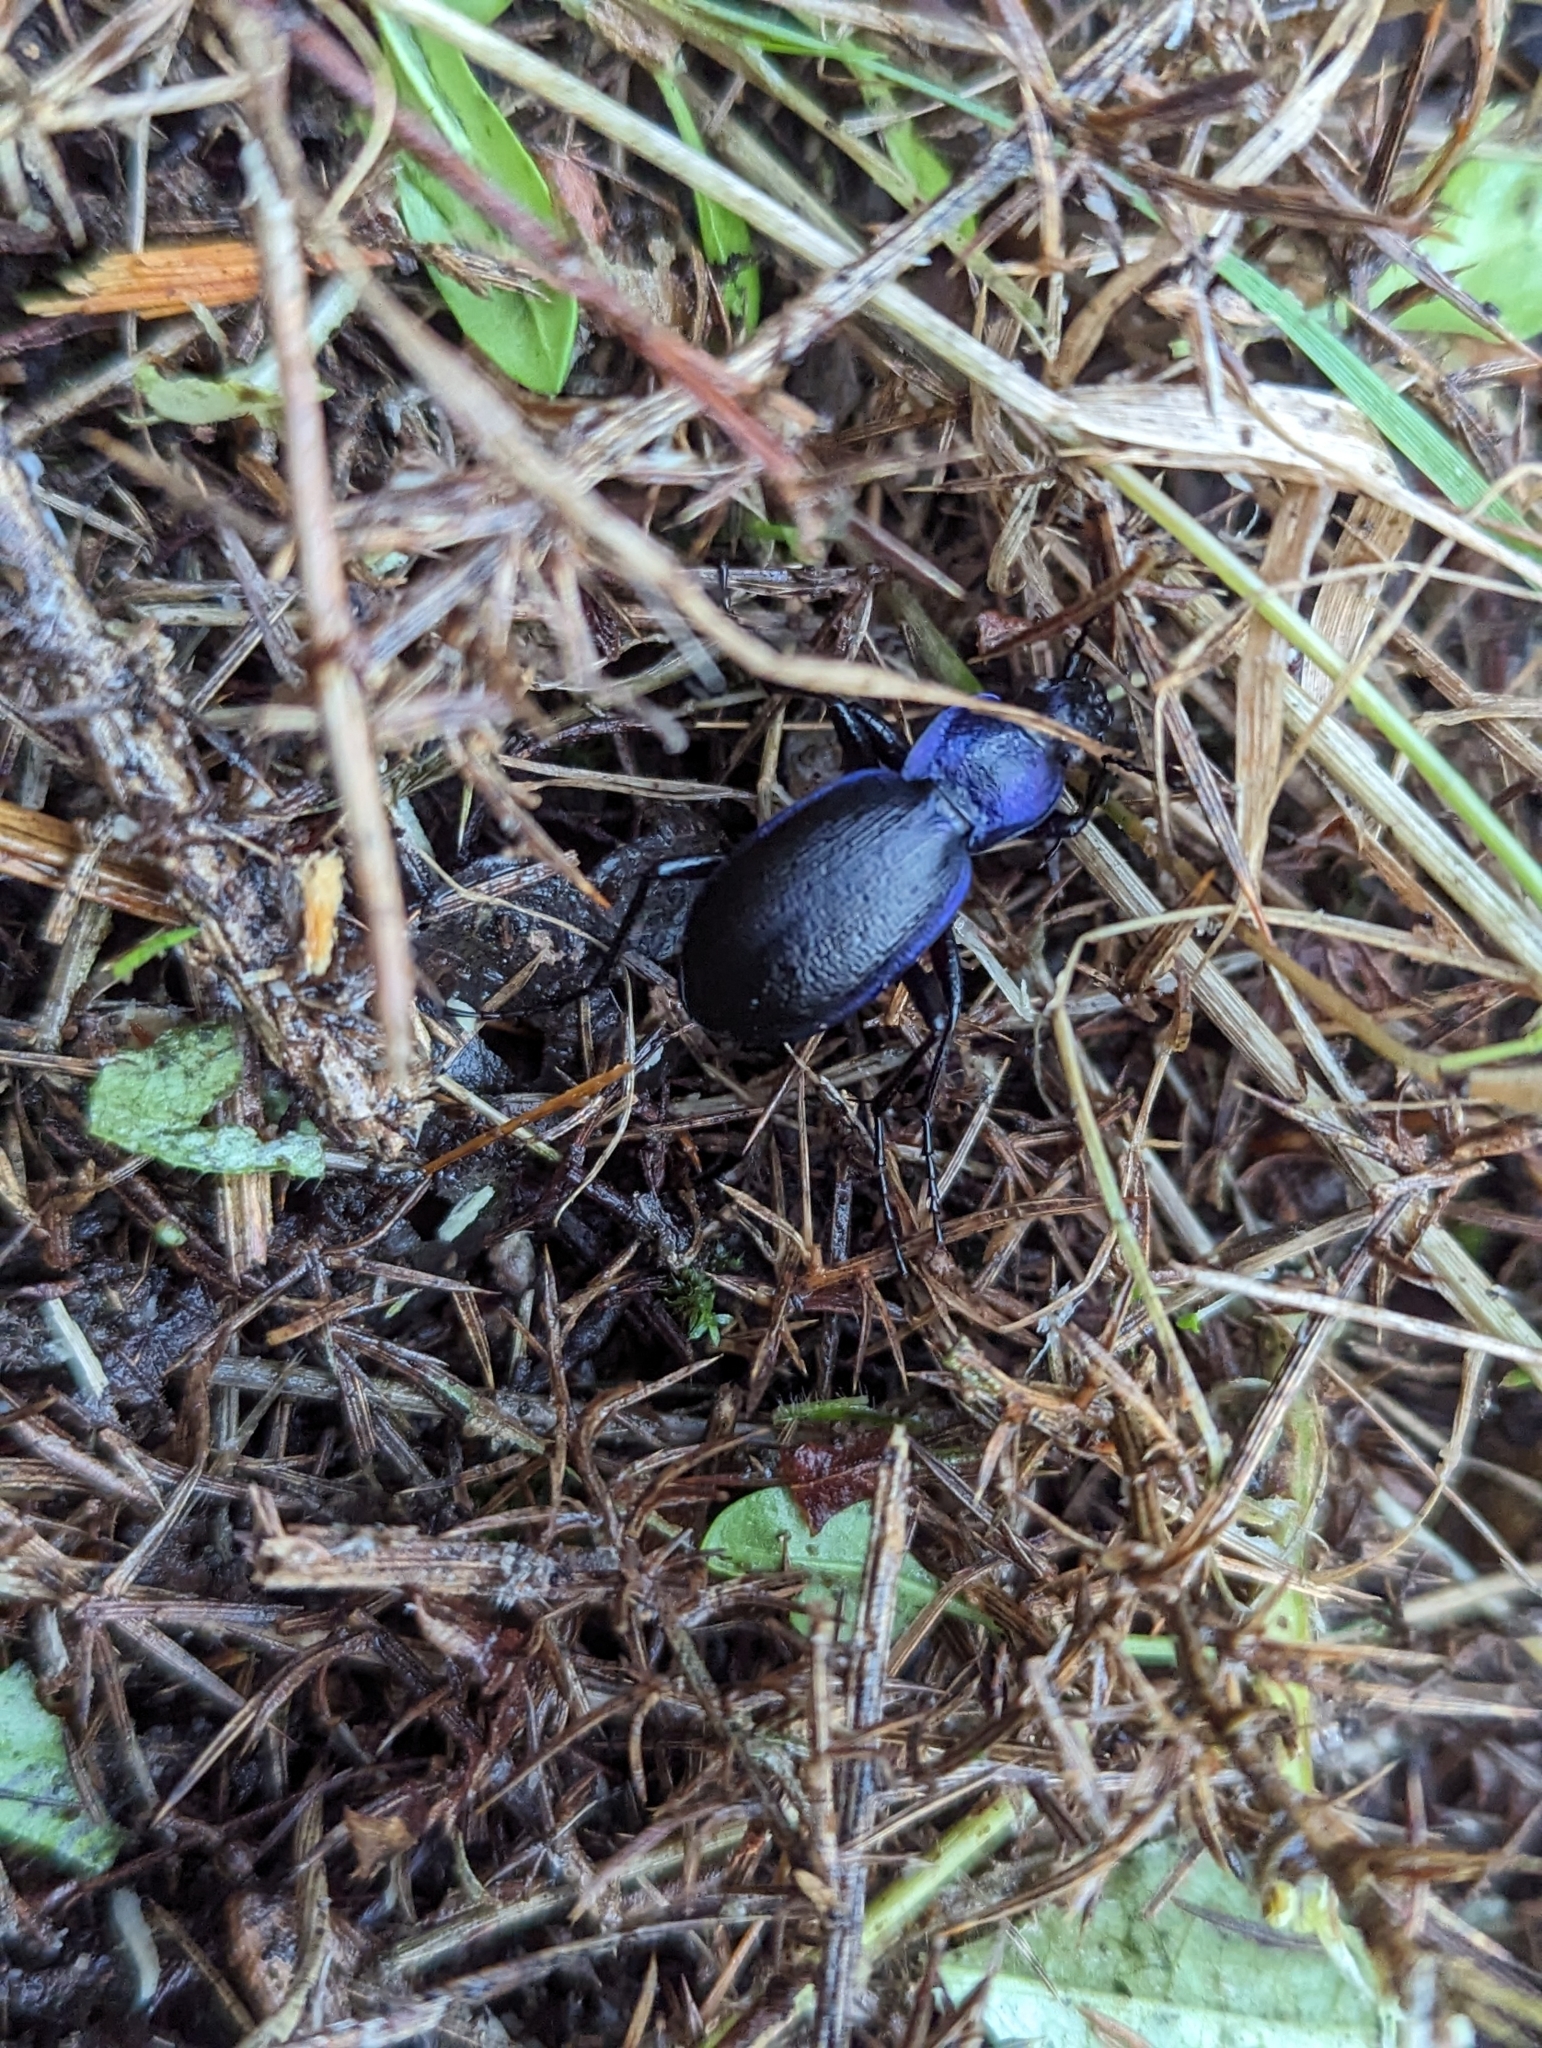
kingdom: Animalia
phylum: Arthropoda
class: Insecta
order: Coleoptera
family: Carabidae
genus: Carabus
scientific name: Carabus problematicus
